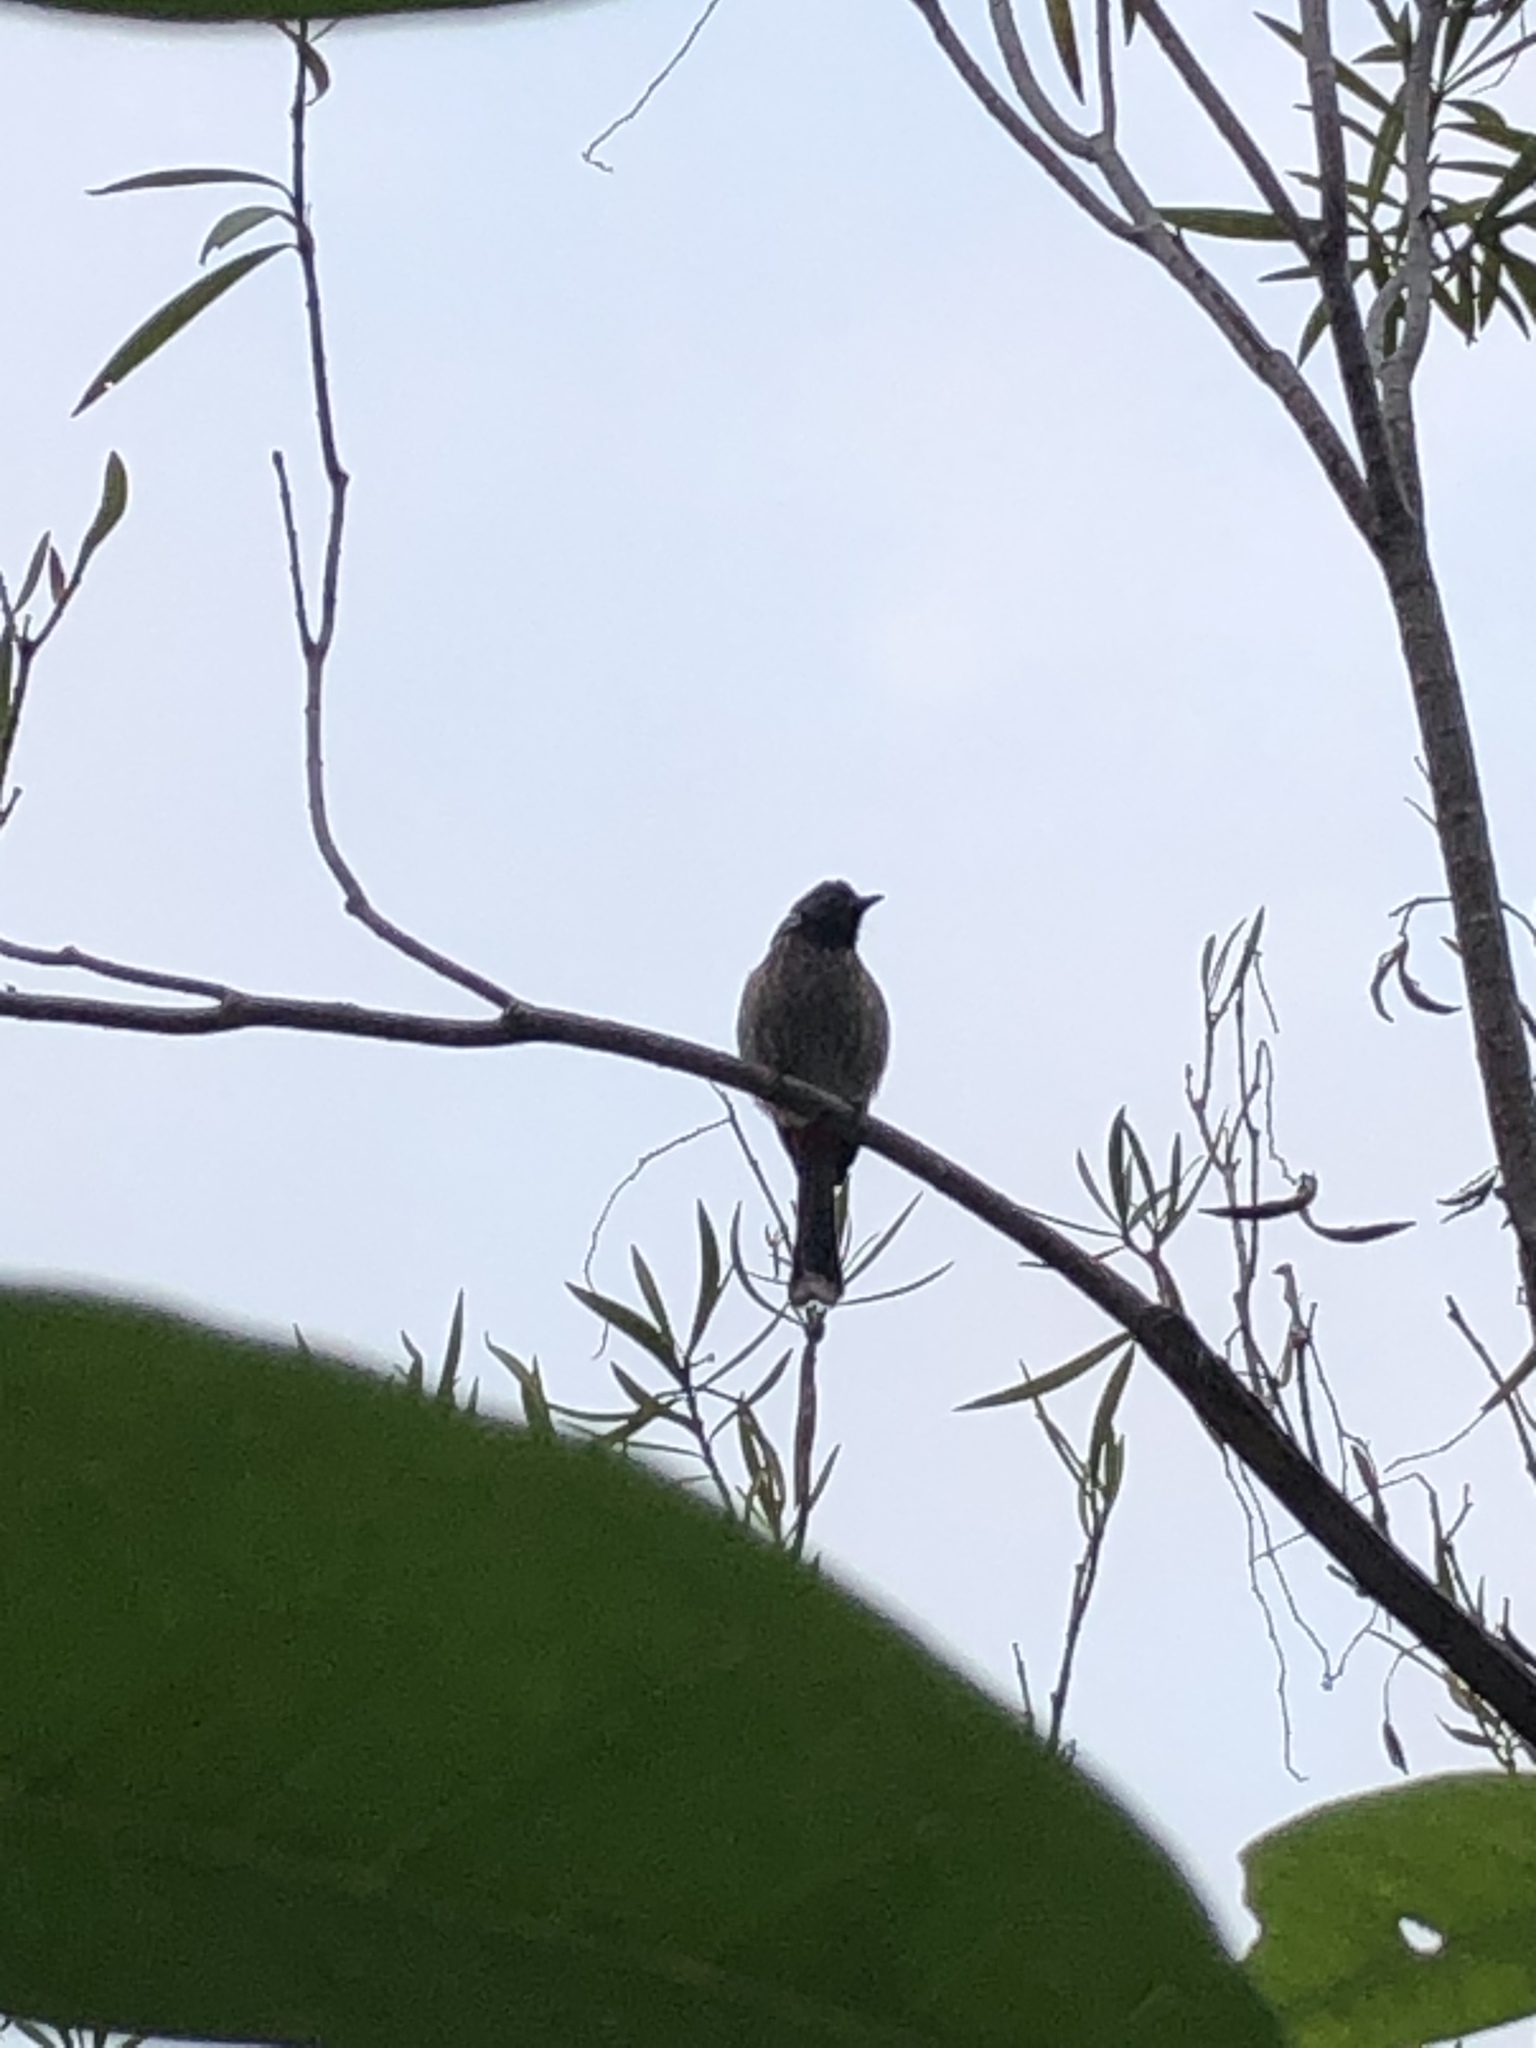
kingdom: Animalia
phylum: Chordata
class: Aves
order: Passeriformes
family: Pycnonotidae
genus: Pycnonotus
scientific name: Pycnonotus cafer
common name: Red-vented bulbul
